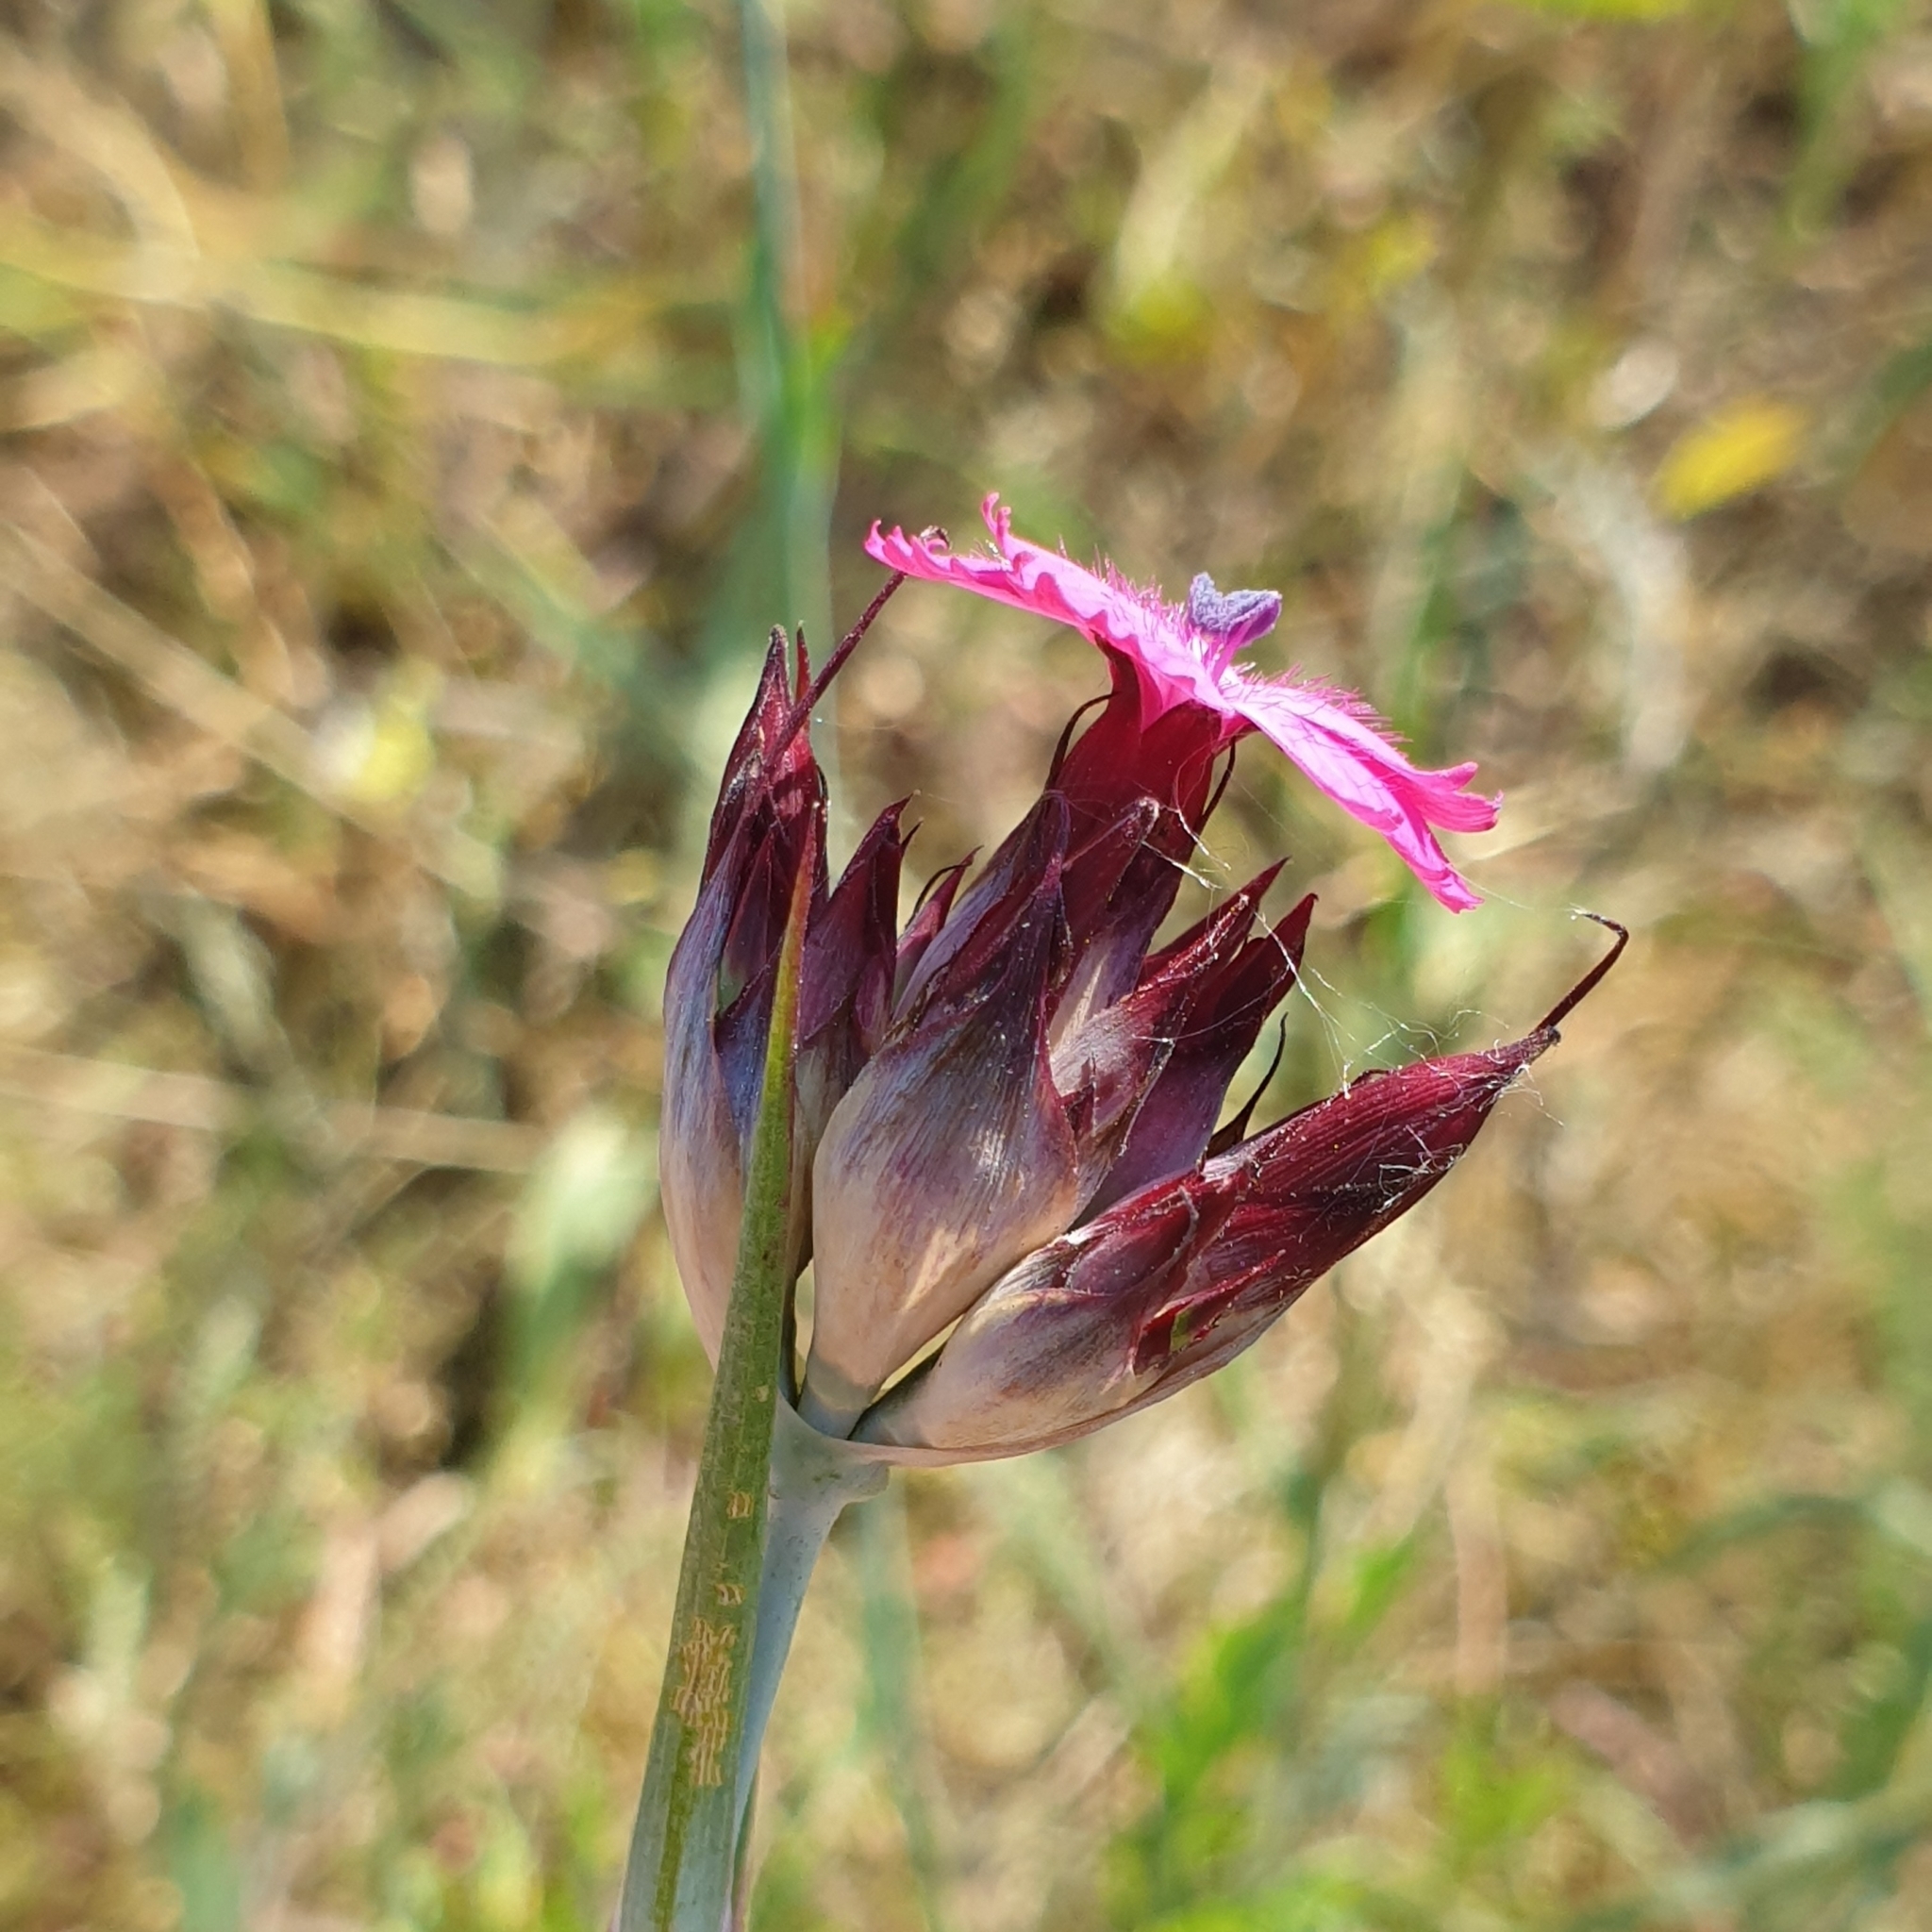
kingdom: Plantae
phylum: Tracheophyta
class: Magnoliopsida
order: Caryophyllales
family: Caryophyllaceae
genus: Dianthus
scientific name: Dianthus giganteus
